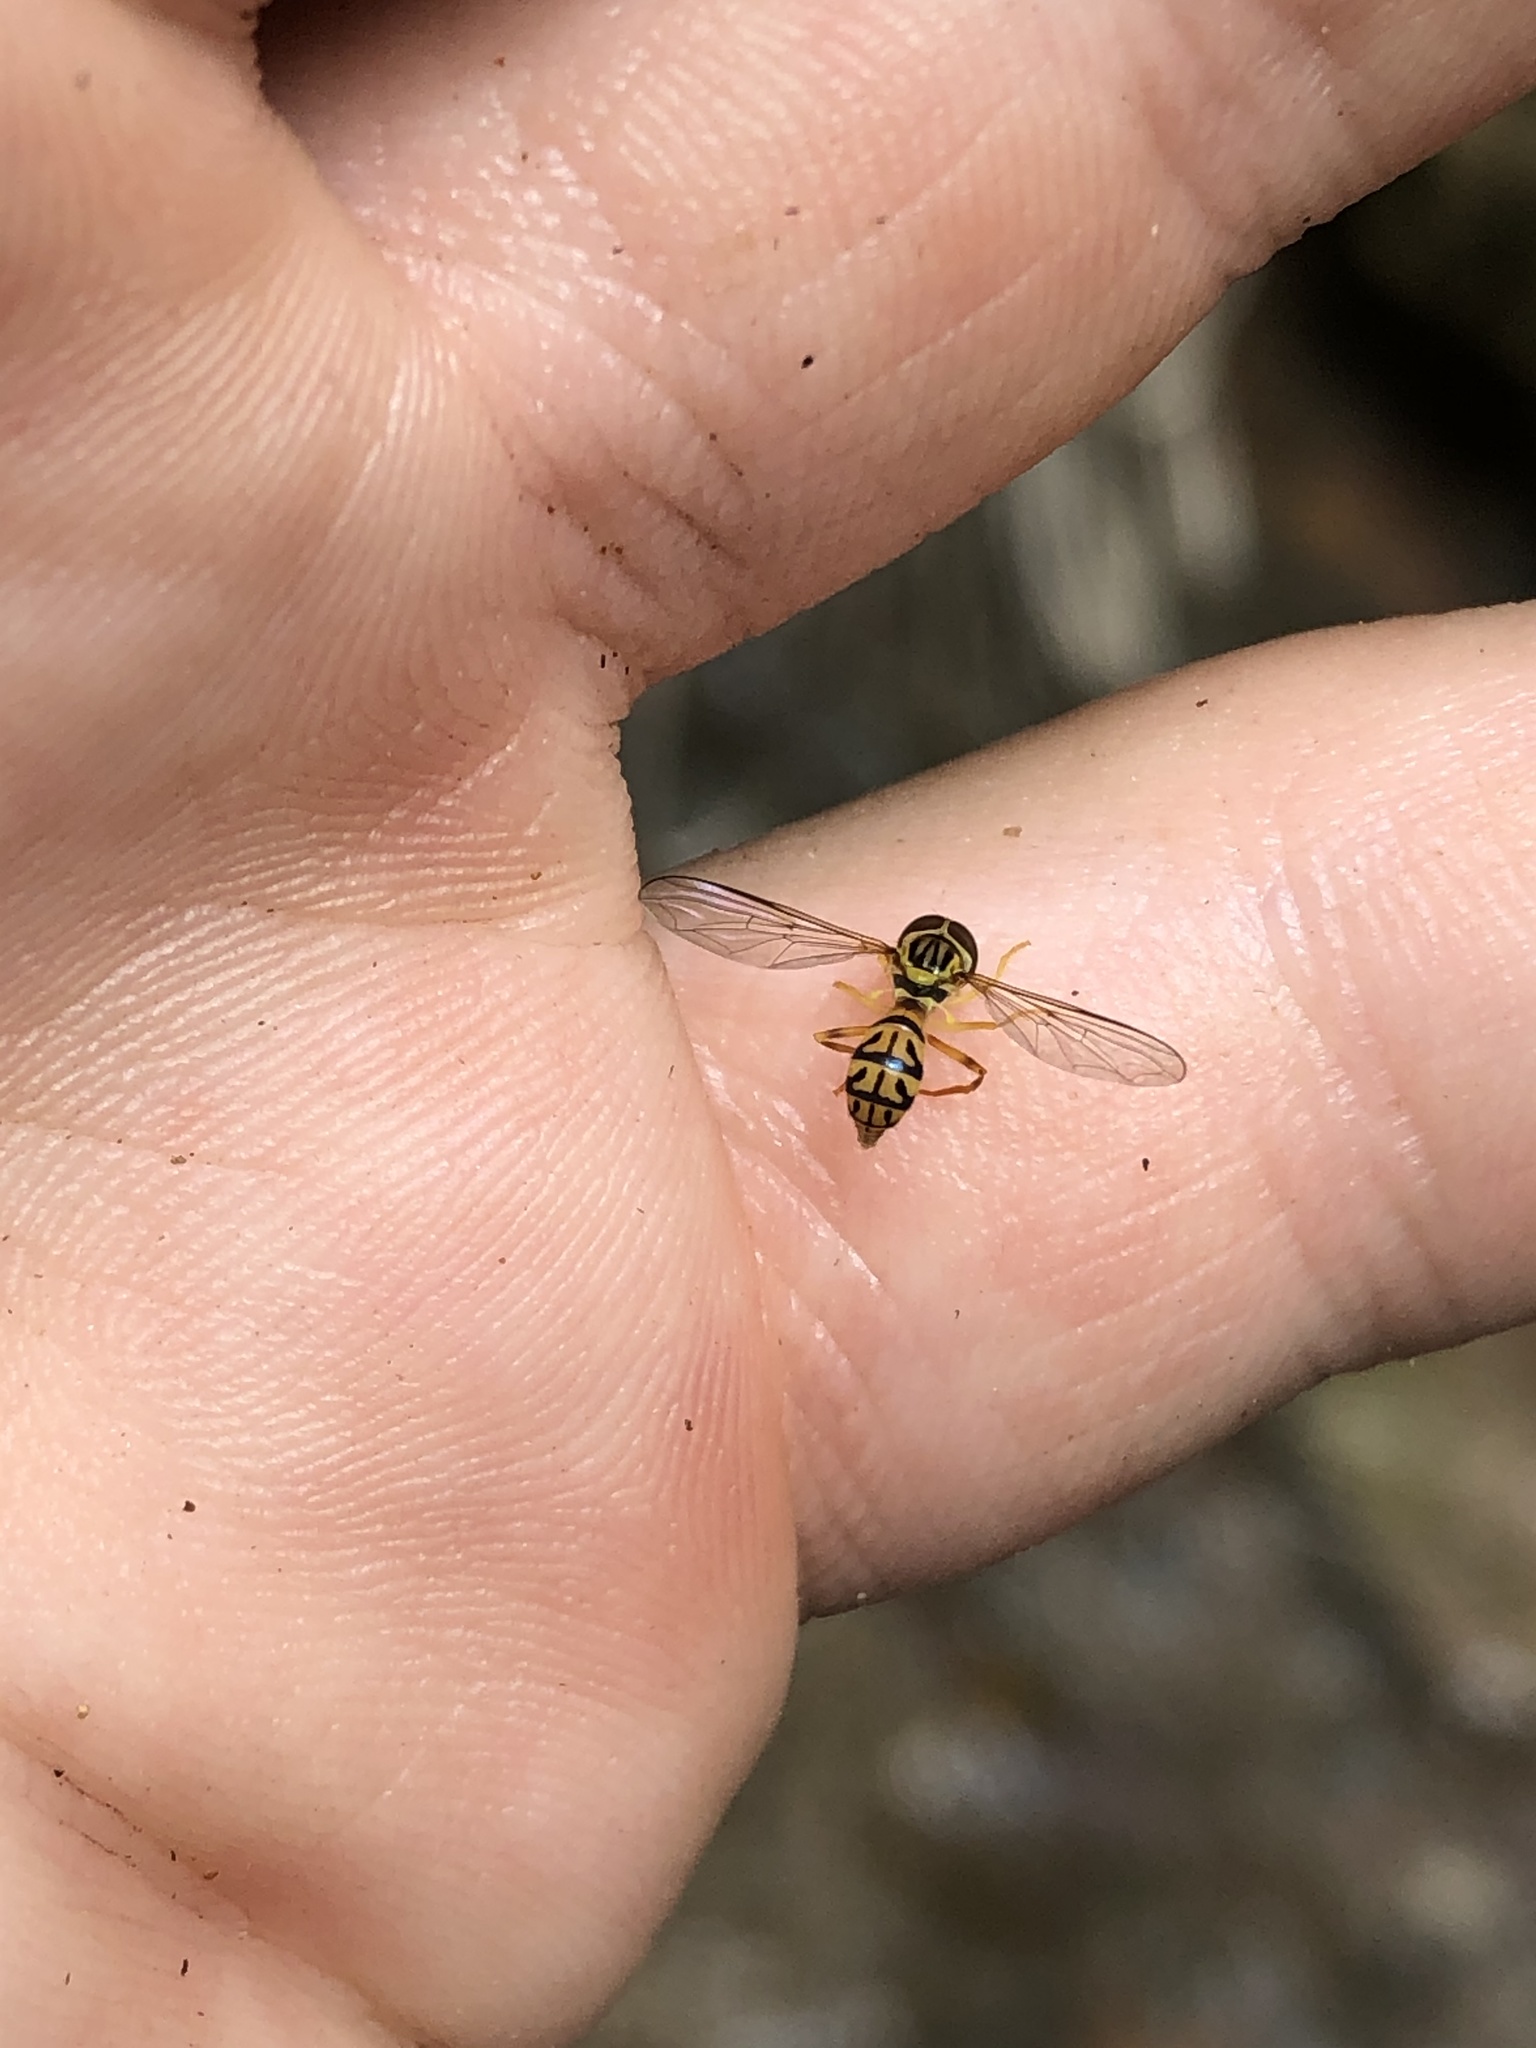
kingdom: Animalia
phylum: Arthropoda
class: Insecta
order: Diptera
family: Syrphidae
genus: Maiana
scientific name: Maiana pumilus
